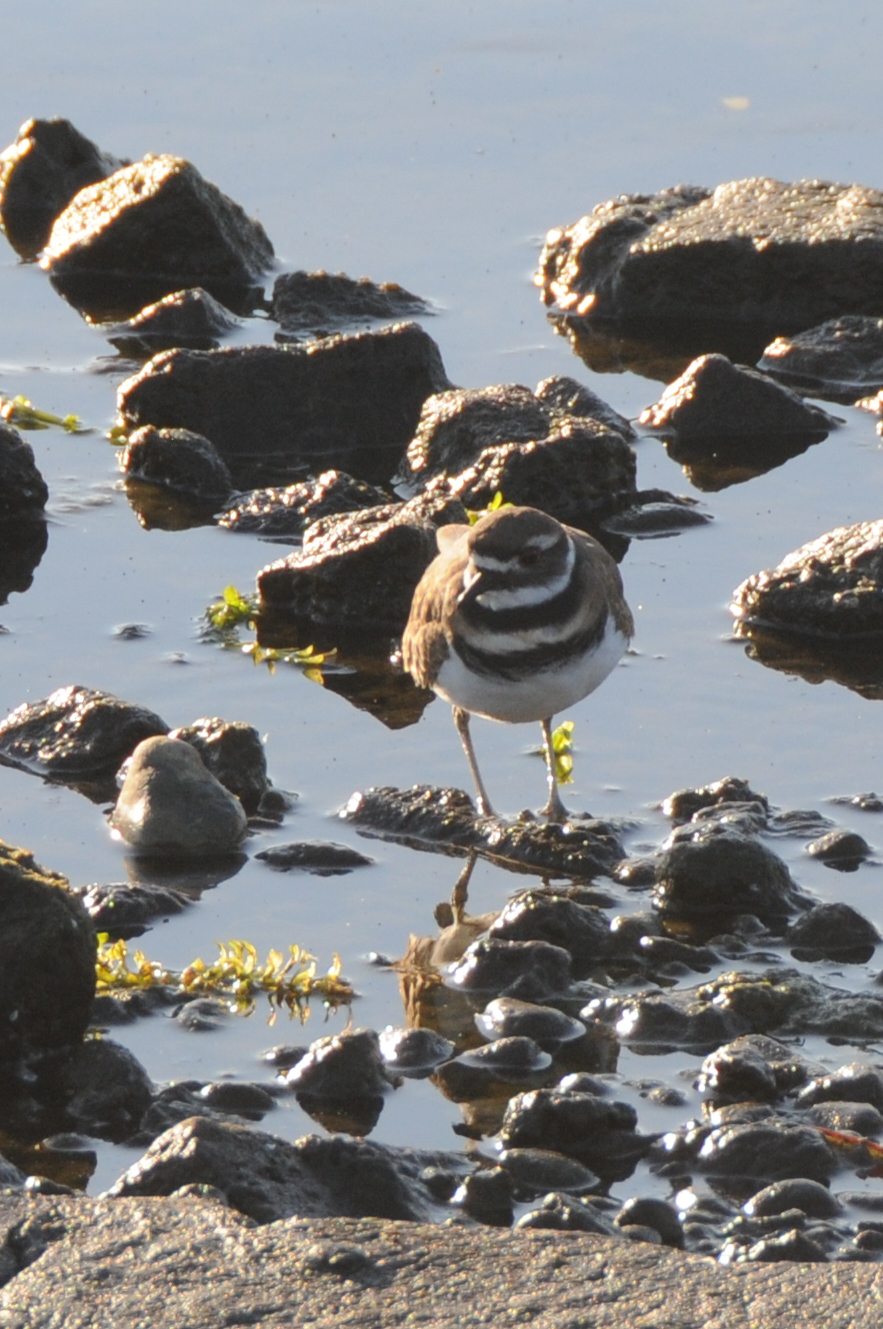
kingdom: Animalia
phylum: Chordata
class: Aves
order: Charadriiformes
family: Charadriidae
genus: Charadrius
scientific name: Charadrius vociferus
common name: Killdeer
